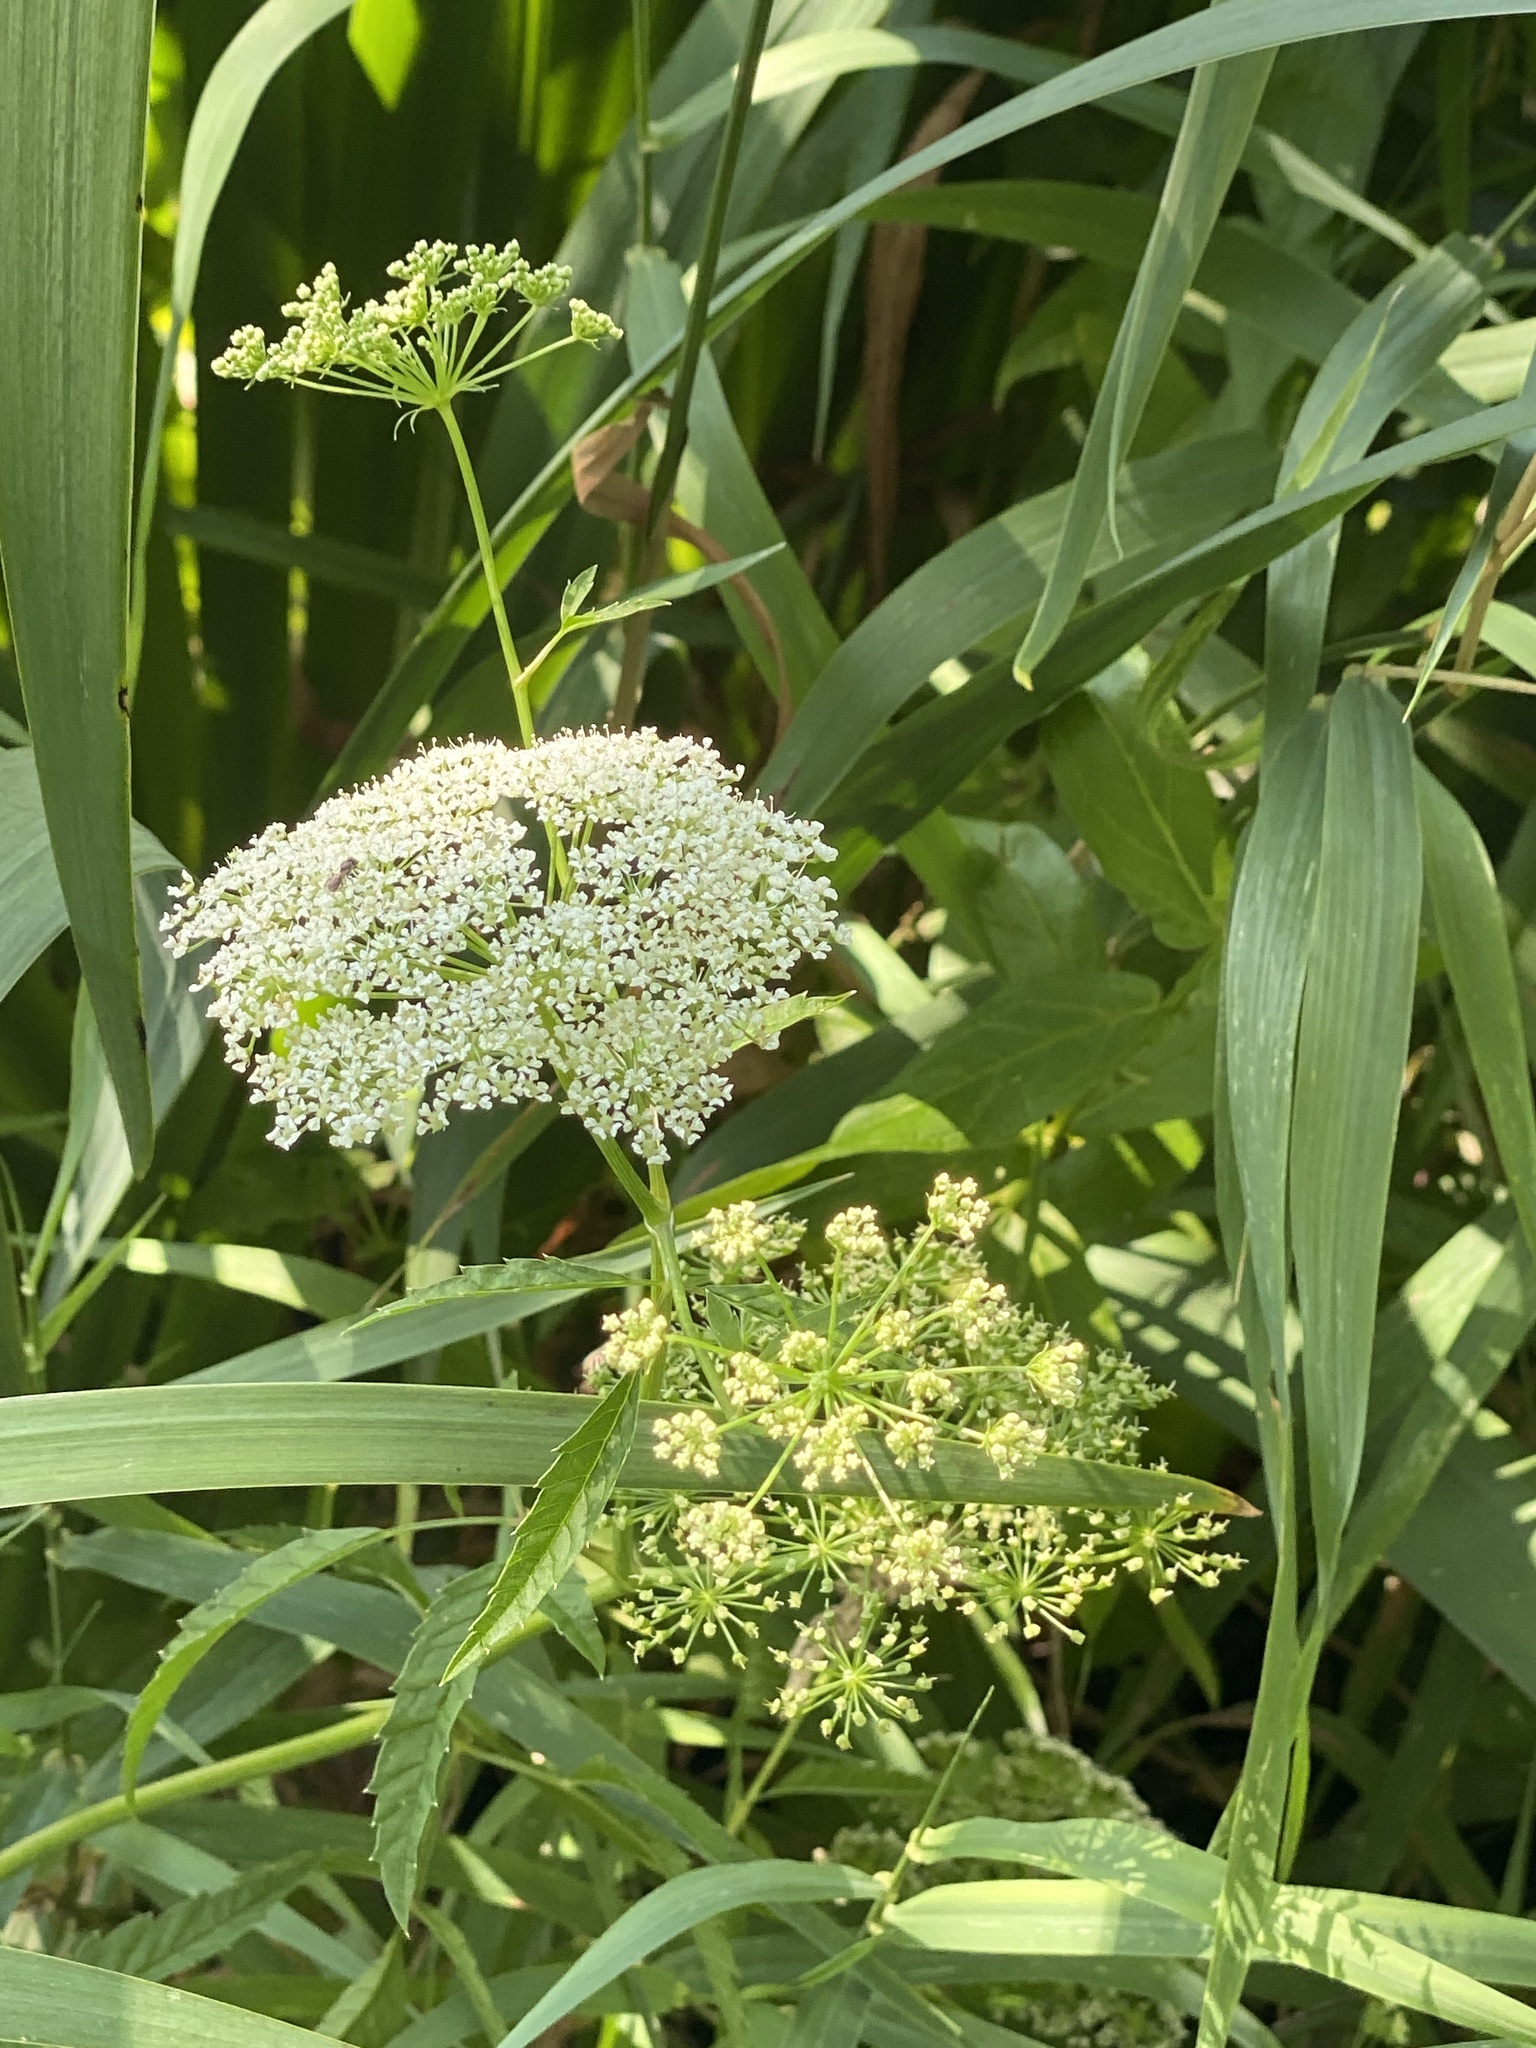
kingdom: Plantae
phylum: Tracheophyta
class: Magnoliopsida
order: Apiales
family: Apiaceae
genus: Cicuta
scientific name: Cicuta maculata
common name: Spotted cowbane
